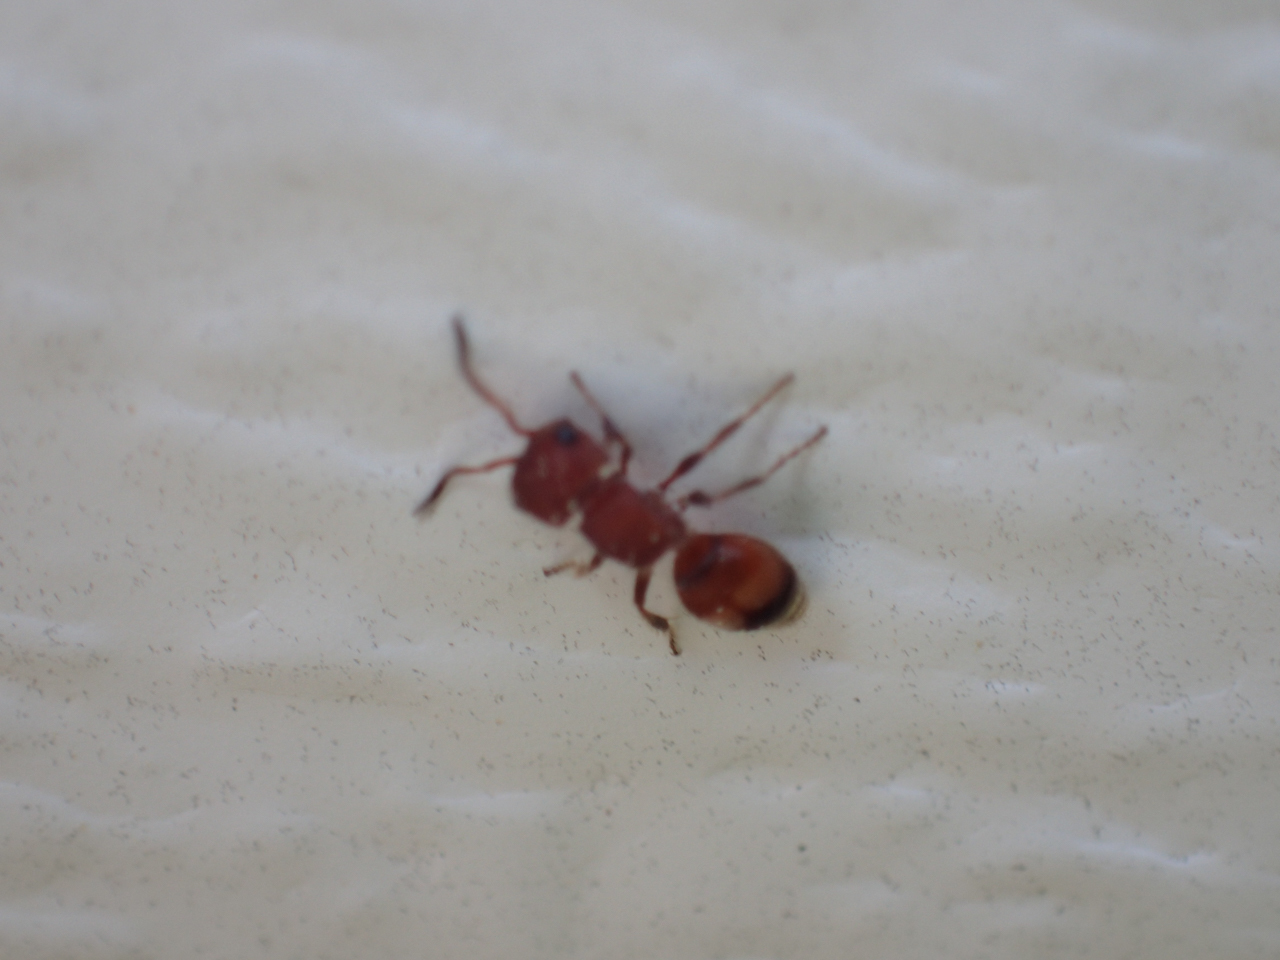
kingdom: Animalia
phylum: Arthropoda
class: Insecta
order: Hymenoptera
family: Mutillidae
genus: Pseudomethoca
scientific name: Pseudomethoca
